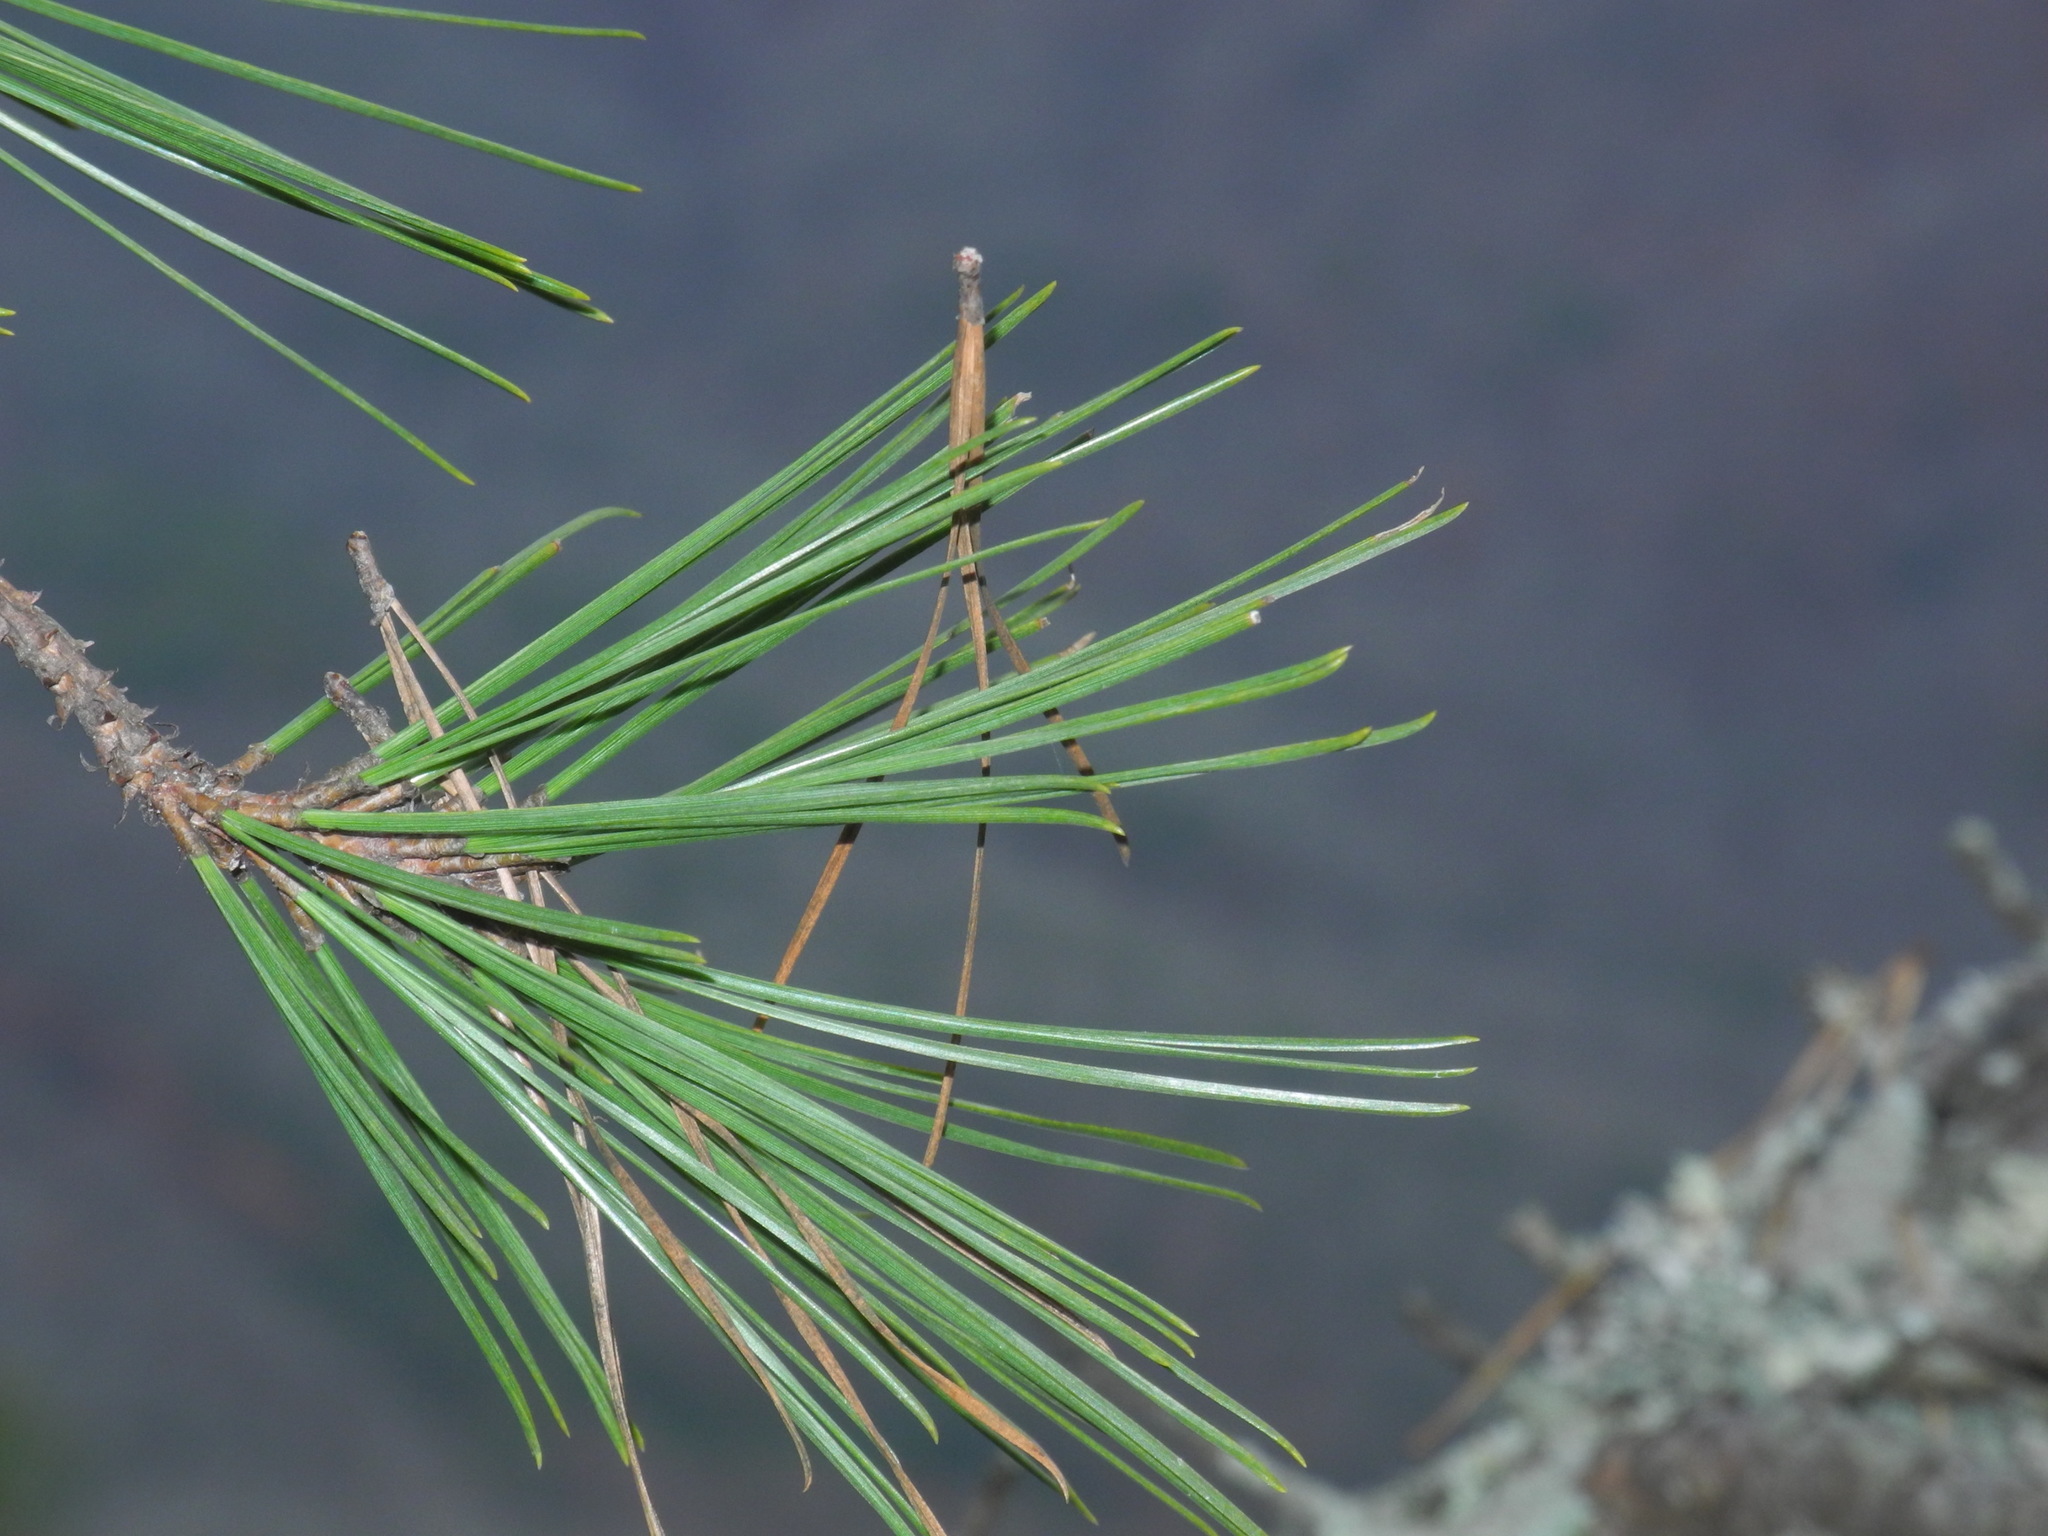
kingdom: Plantae
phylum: Tracheophyta
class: Pinopsida
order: Pinales
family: Pinaceae
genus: Pinus
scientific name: Pinus rigida
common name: Pitch pine
